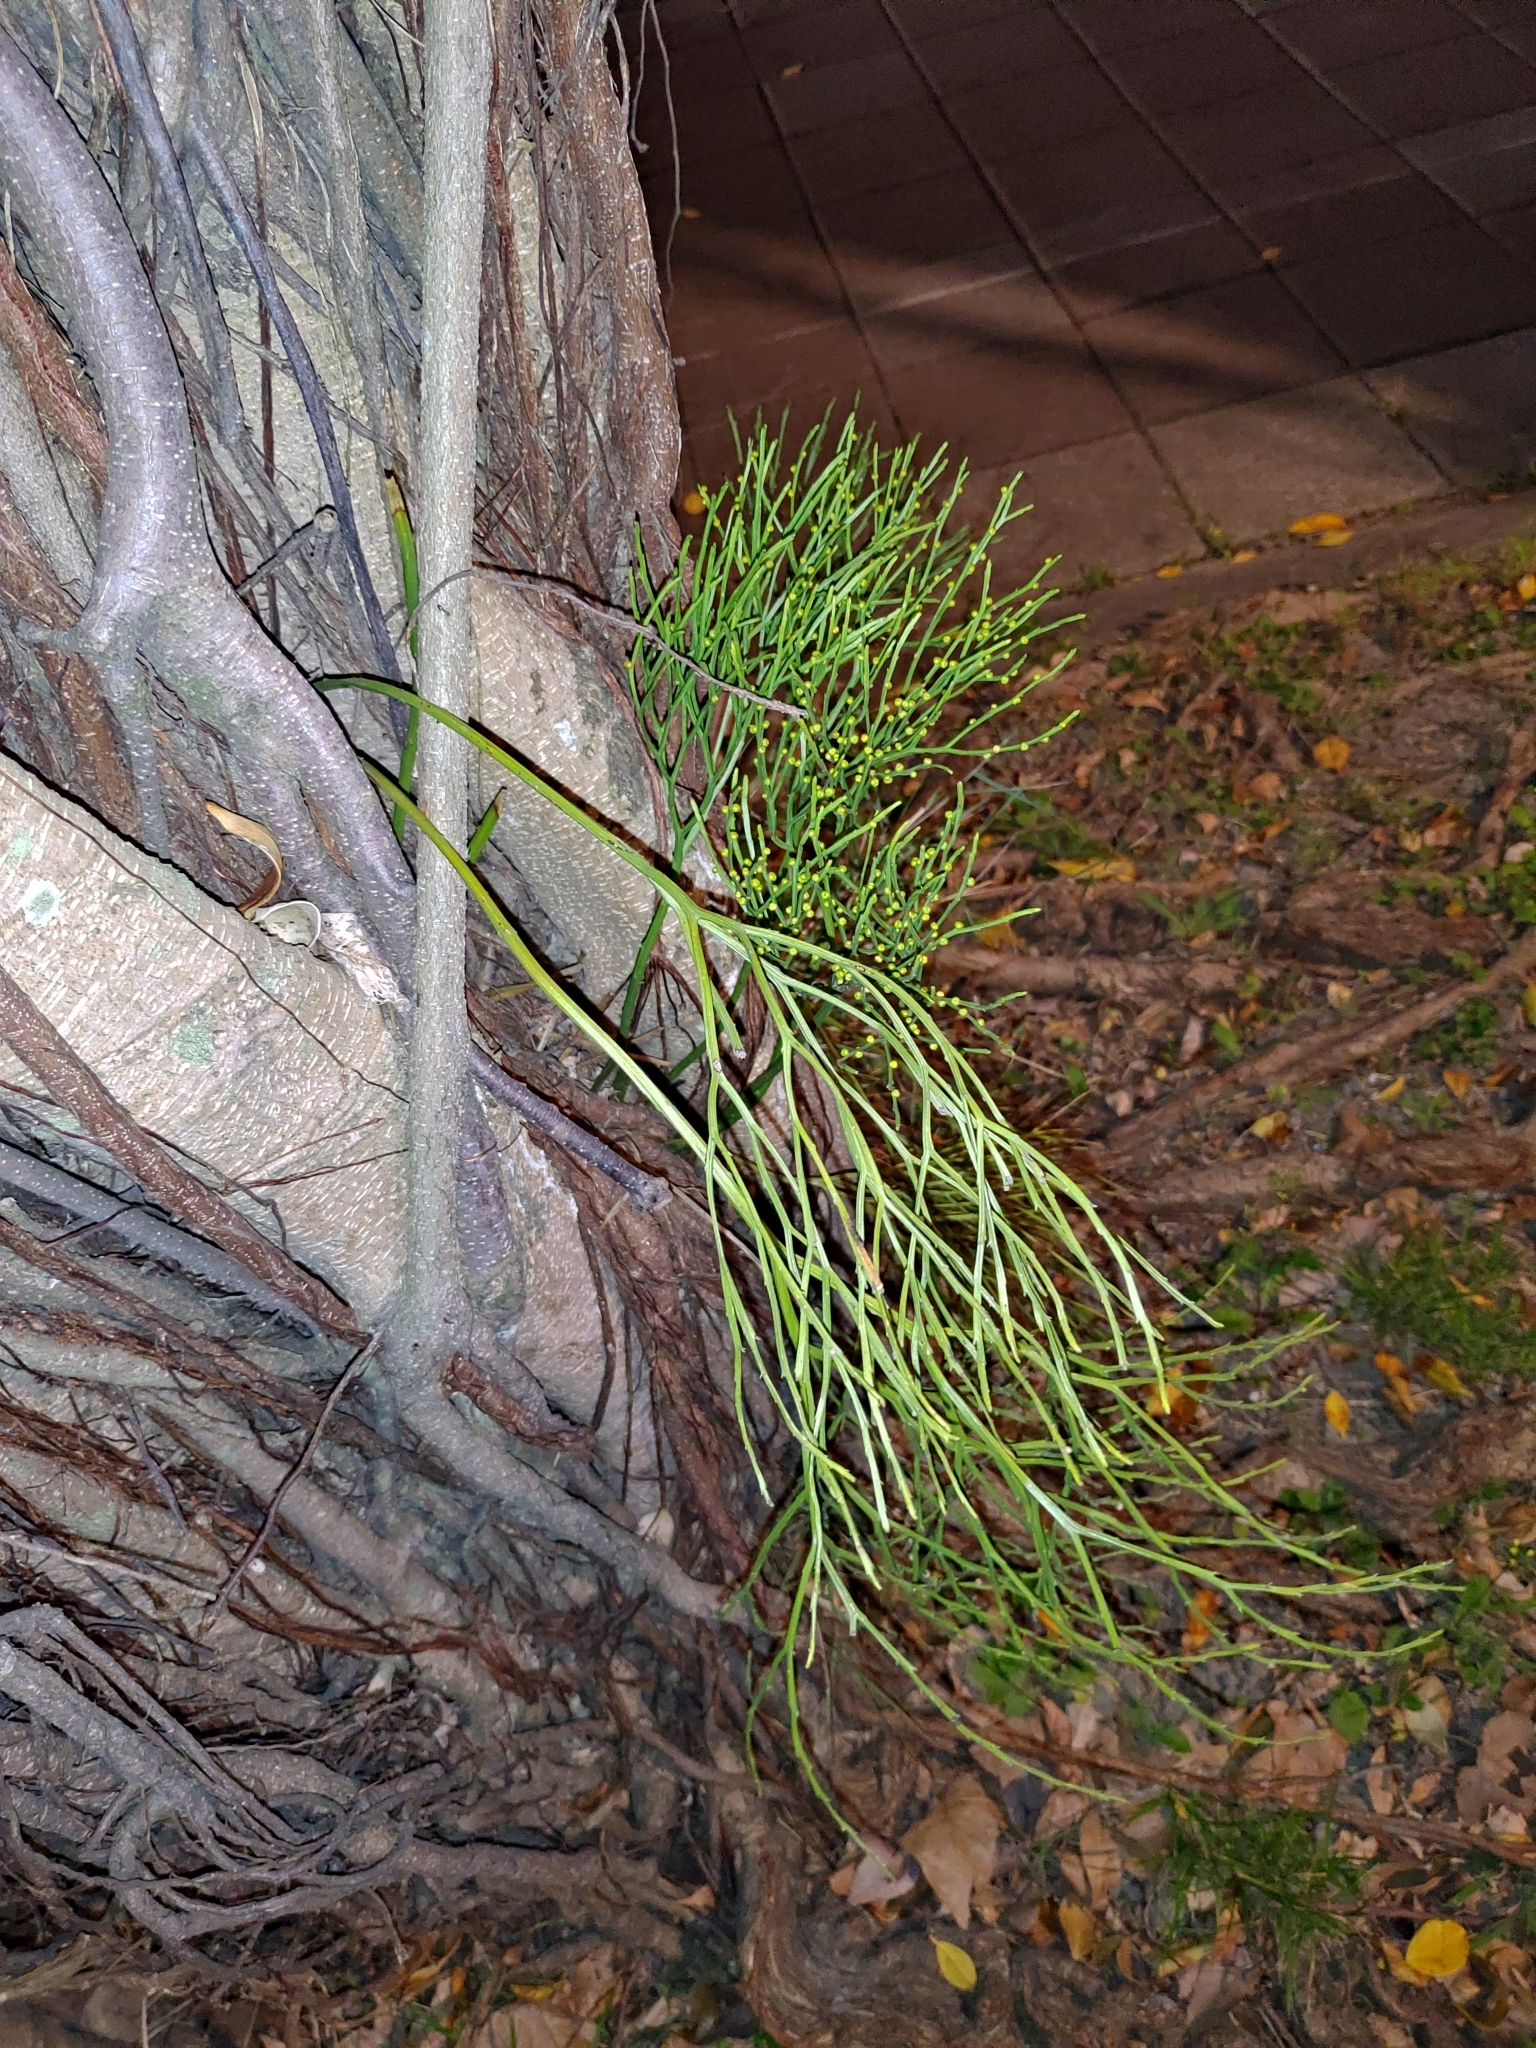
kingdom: Plantae
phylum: Tracheophyta
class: Polypodiopsida
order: Psilotales
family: Psilotaceae
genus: Psilotum
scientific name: Psilotum nudum
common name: Skeleton fork fern
